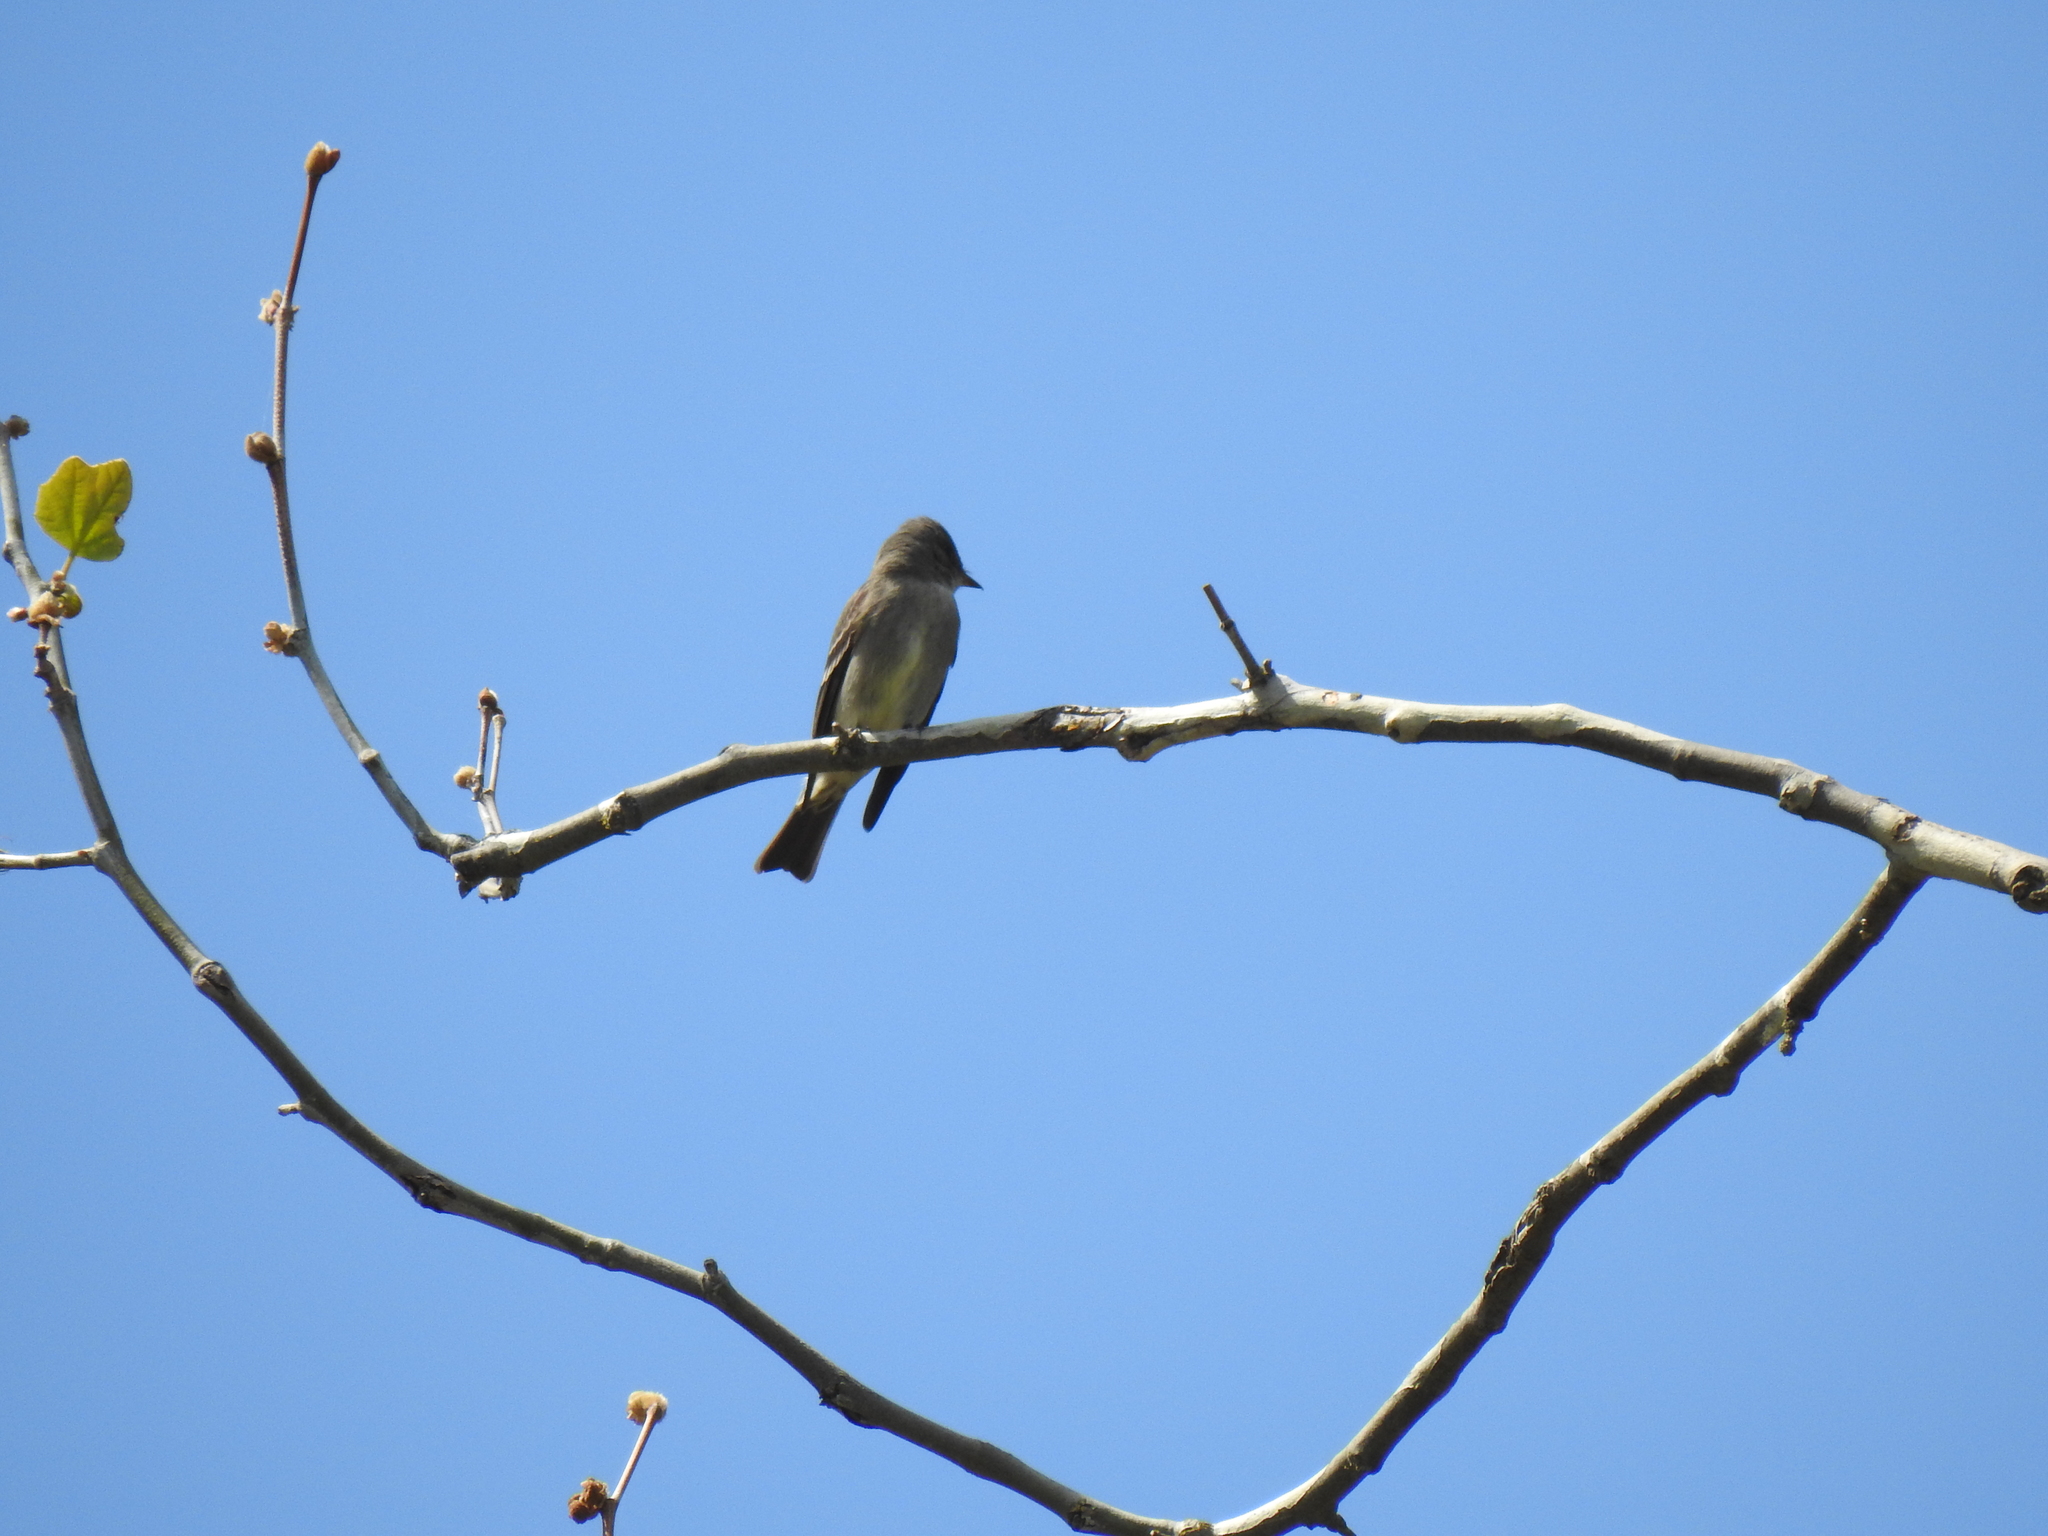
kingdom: Animalia
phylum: Chordata
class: Aves
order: Passeriformes
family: Tyrannidae
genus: Contopus
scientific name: Contopus sordidulus
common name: Western wood-pewee
